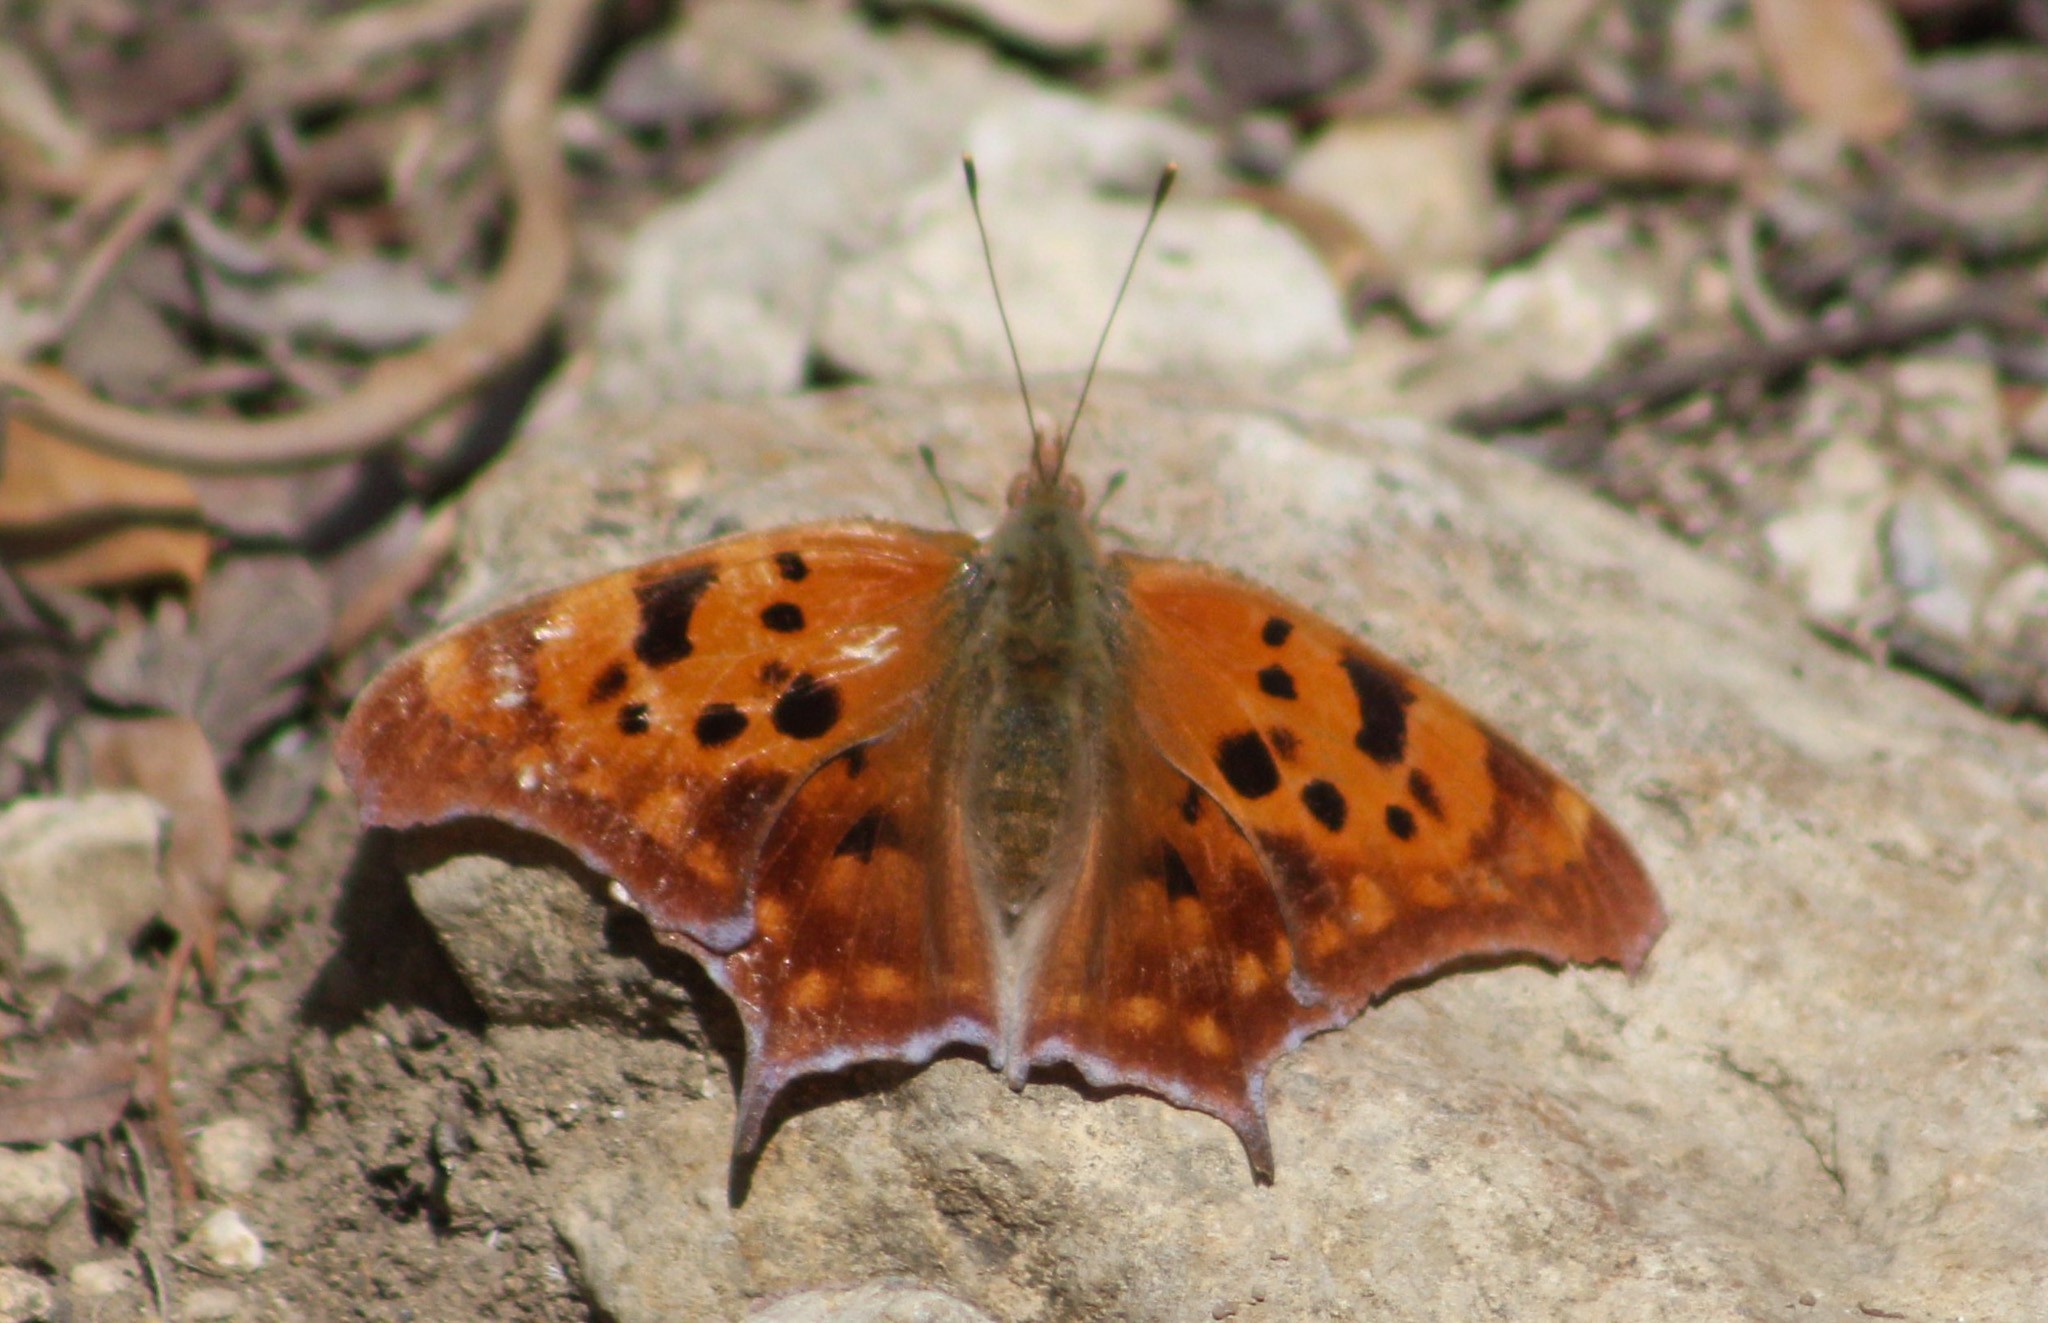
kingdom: Animalia
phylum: Arthropoda
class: Insecta
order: Lepidoptera
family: Nymphalidae
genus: Polygonia
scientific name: Polygonia interrogationis
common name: Question mark
